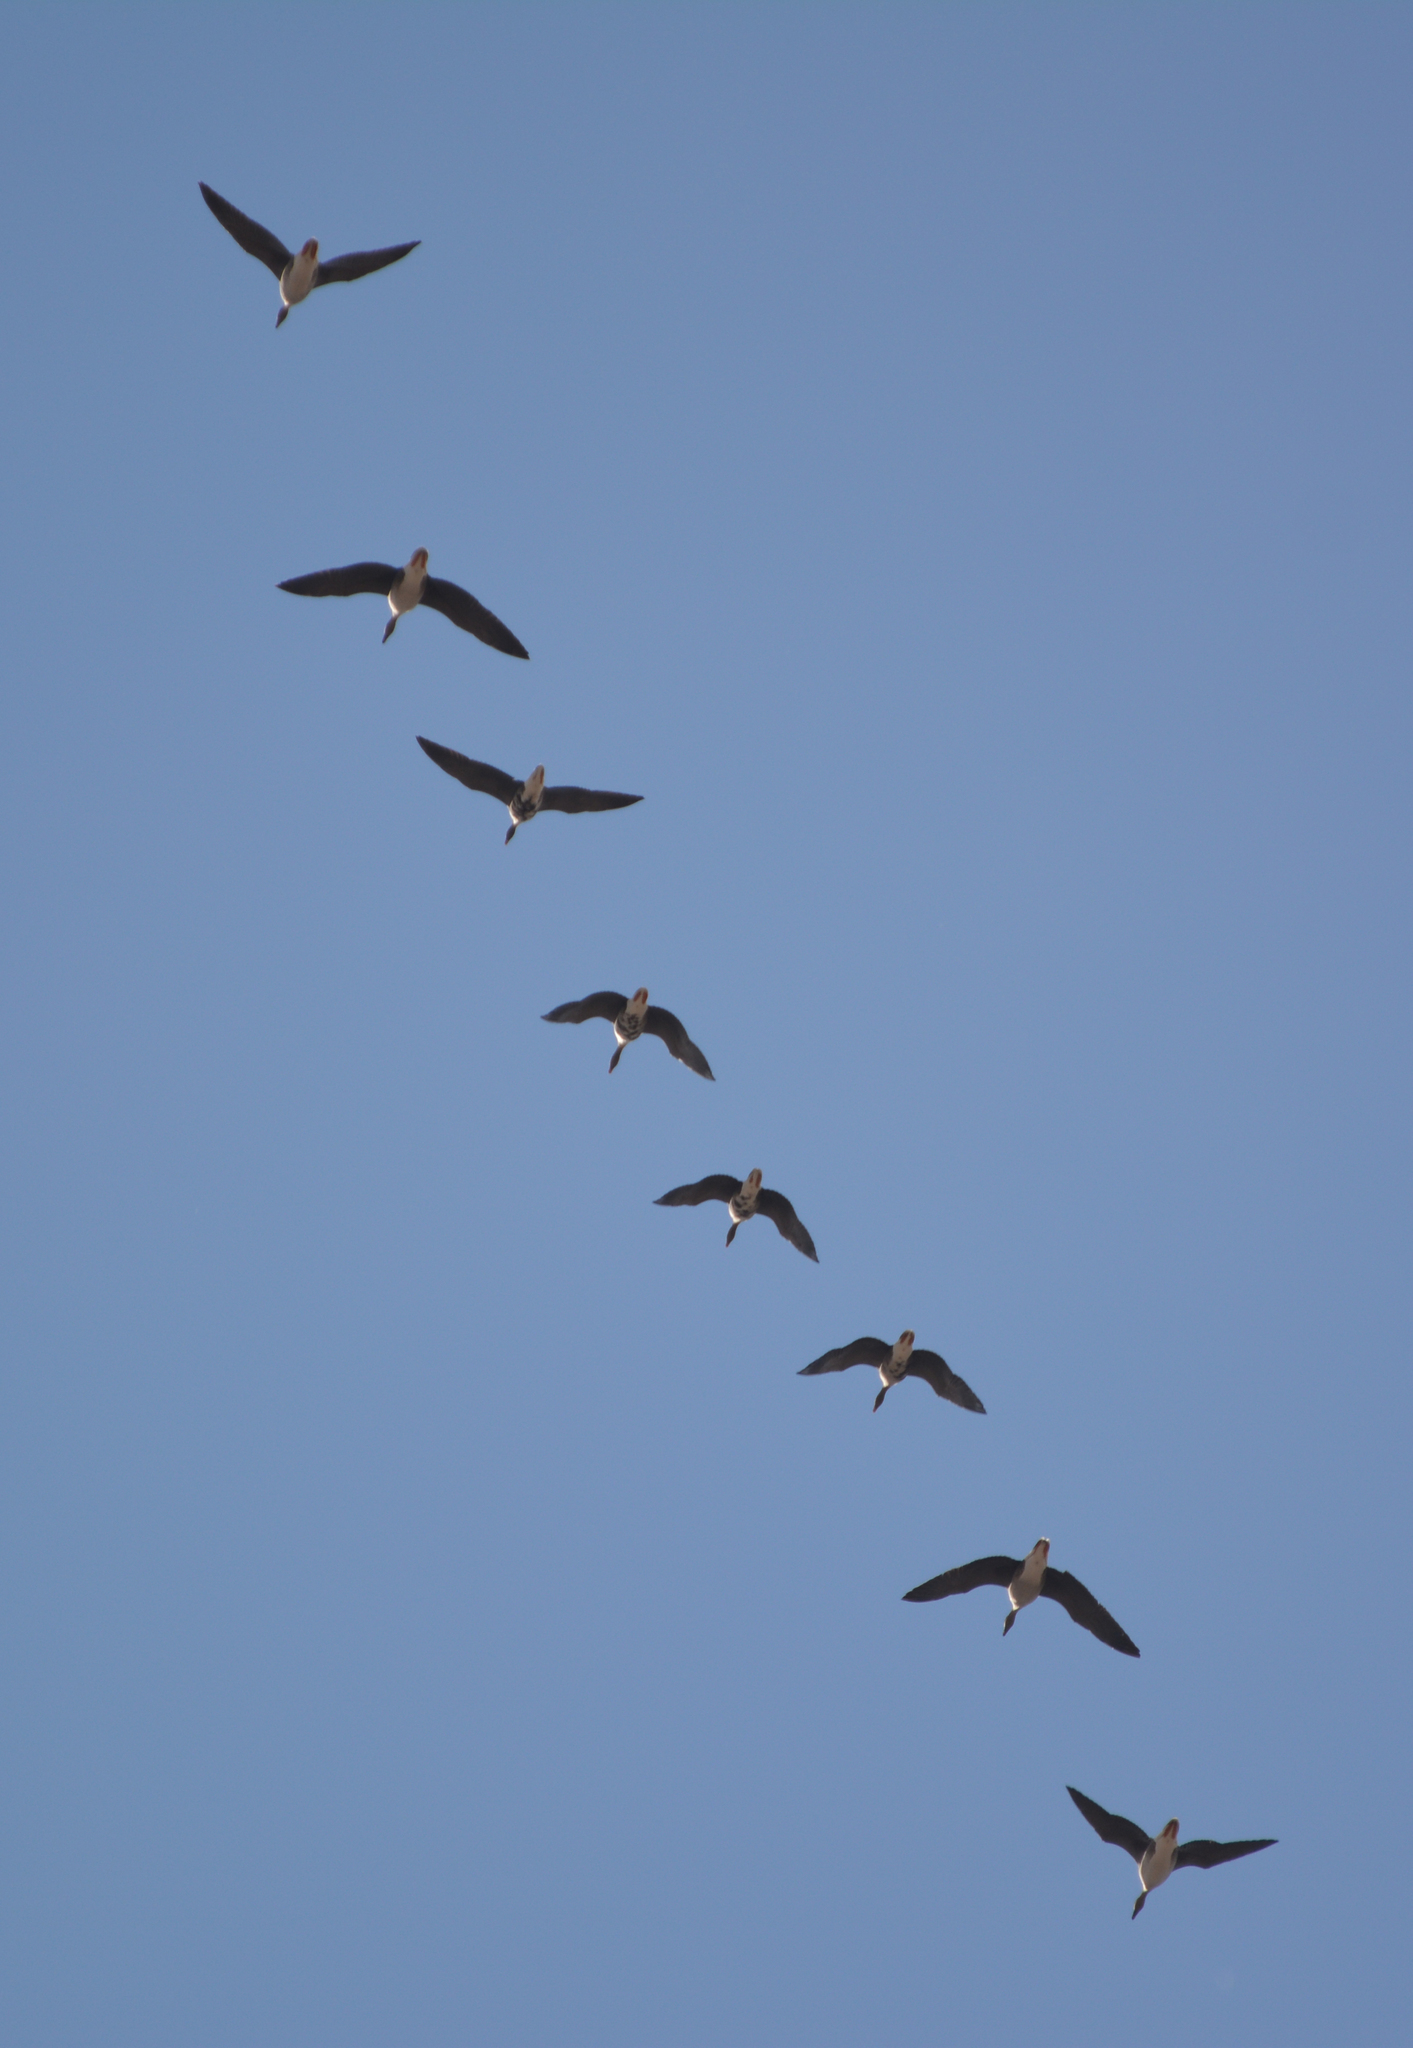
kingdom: Animalia
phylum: Chordata
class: Aves
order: Anseriformes
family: Anatidae
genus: Anser
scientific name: Anser albifrons
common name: Greater white-fronted goose
